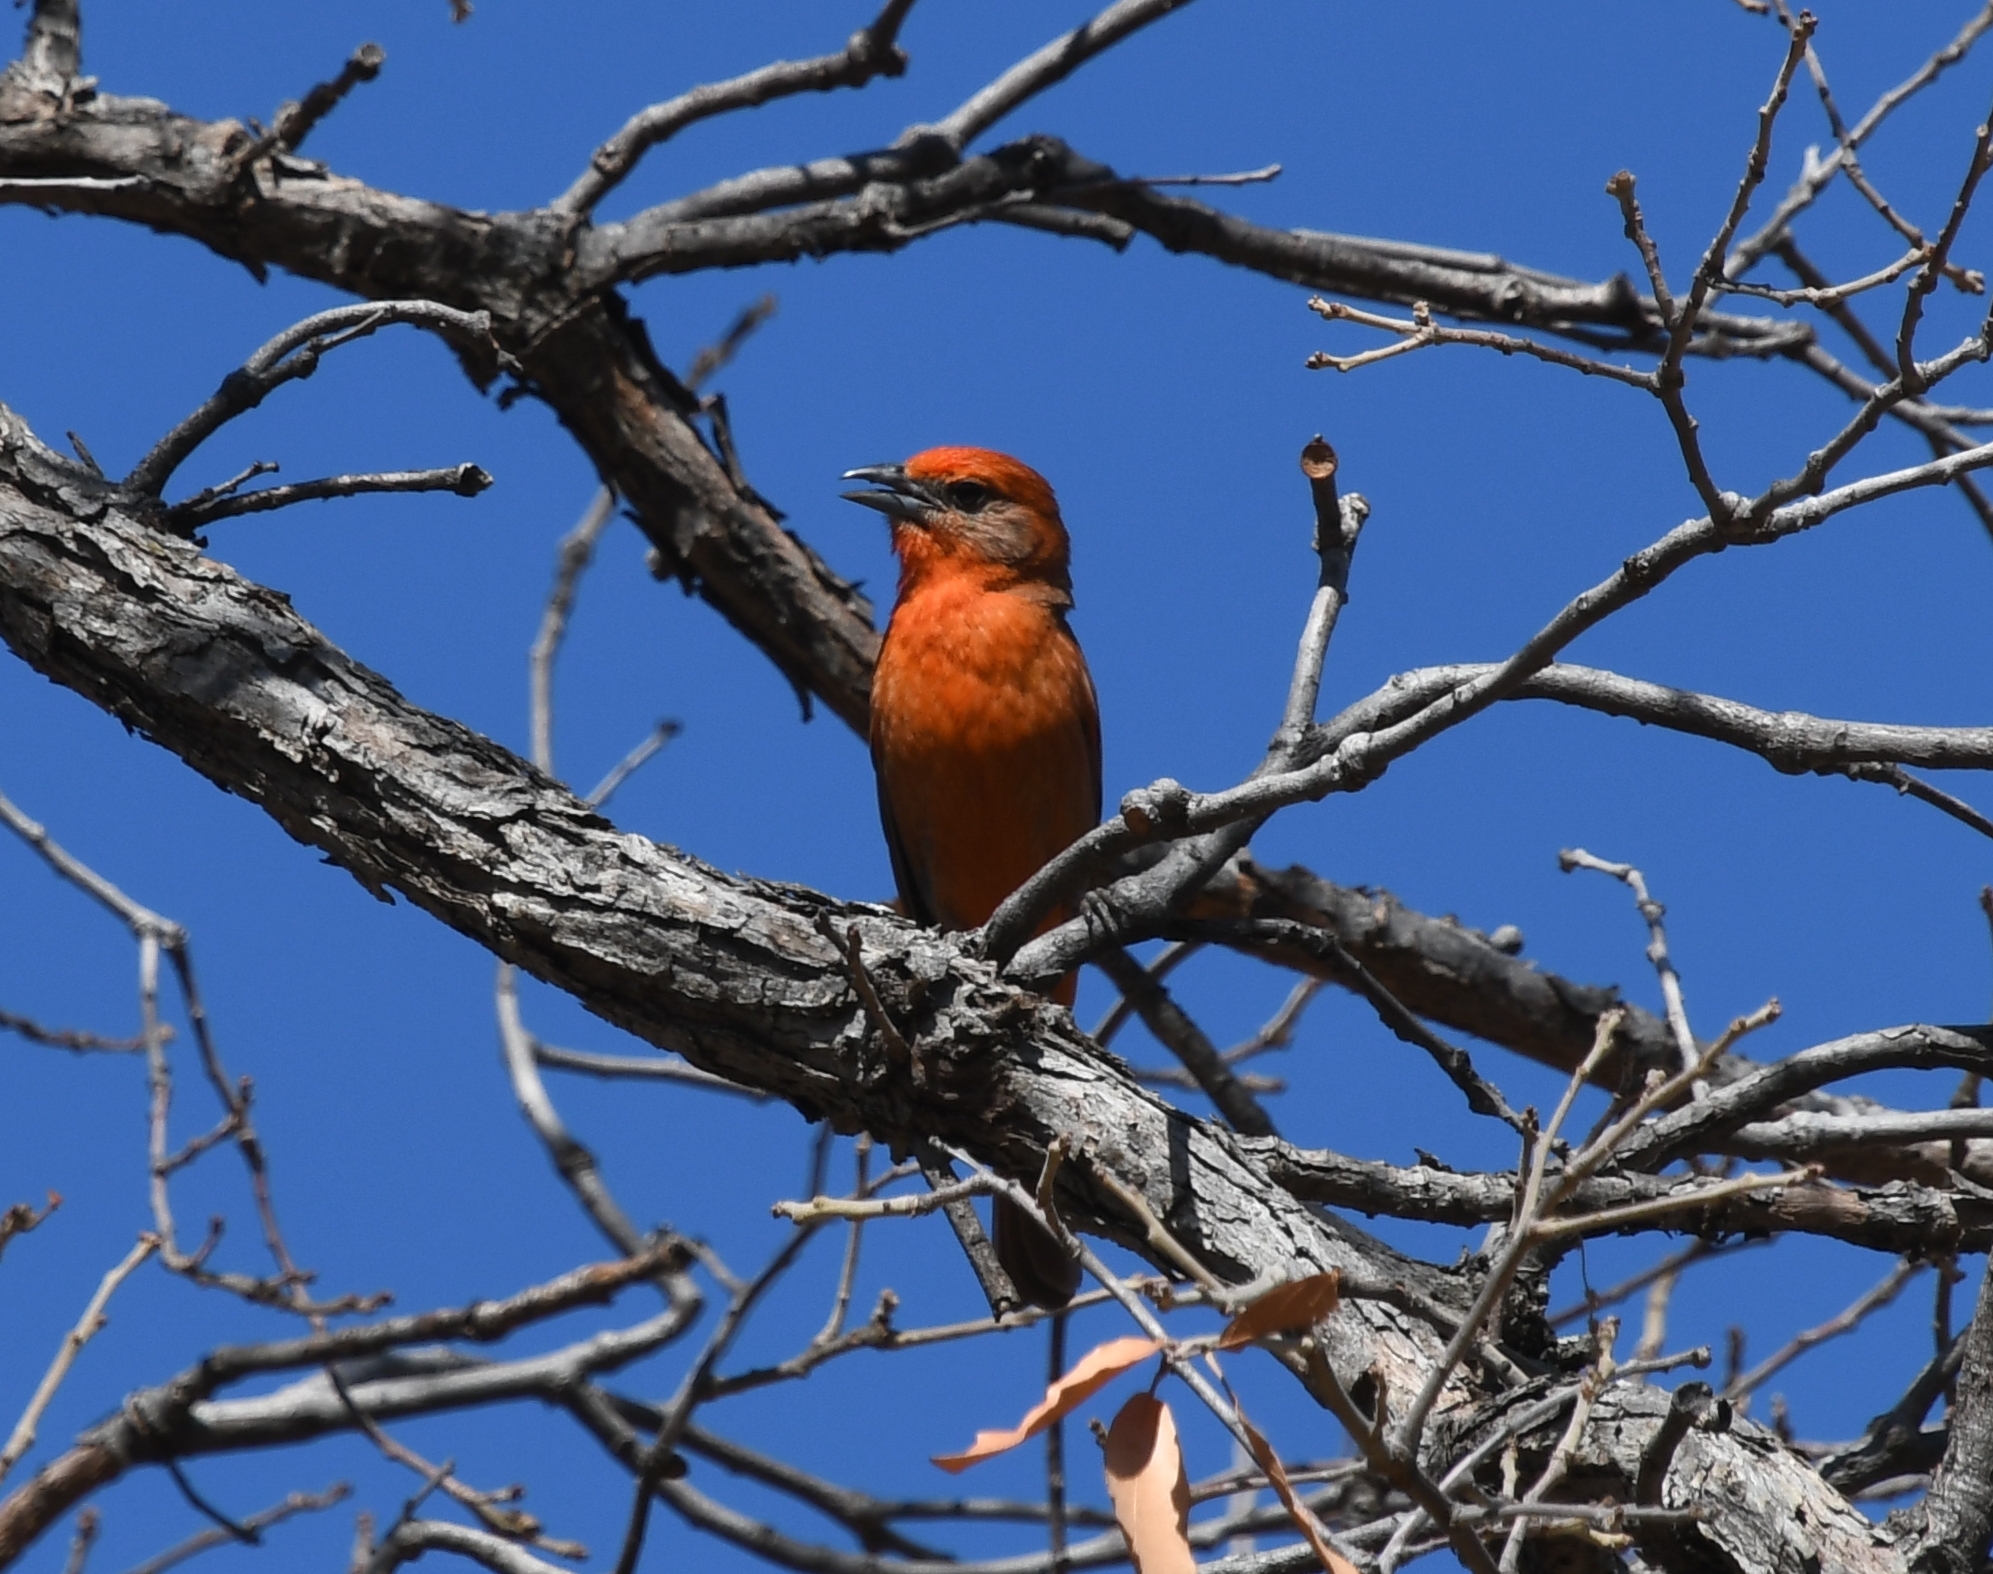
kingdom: Animalia
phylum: Chordata
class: Aves
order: Passeriformes
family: Cardinalidae
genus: Piranga
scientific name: Piranga flava
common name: Red tanager
